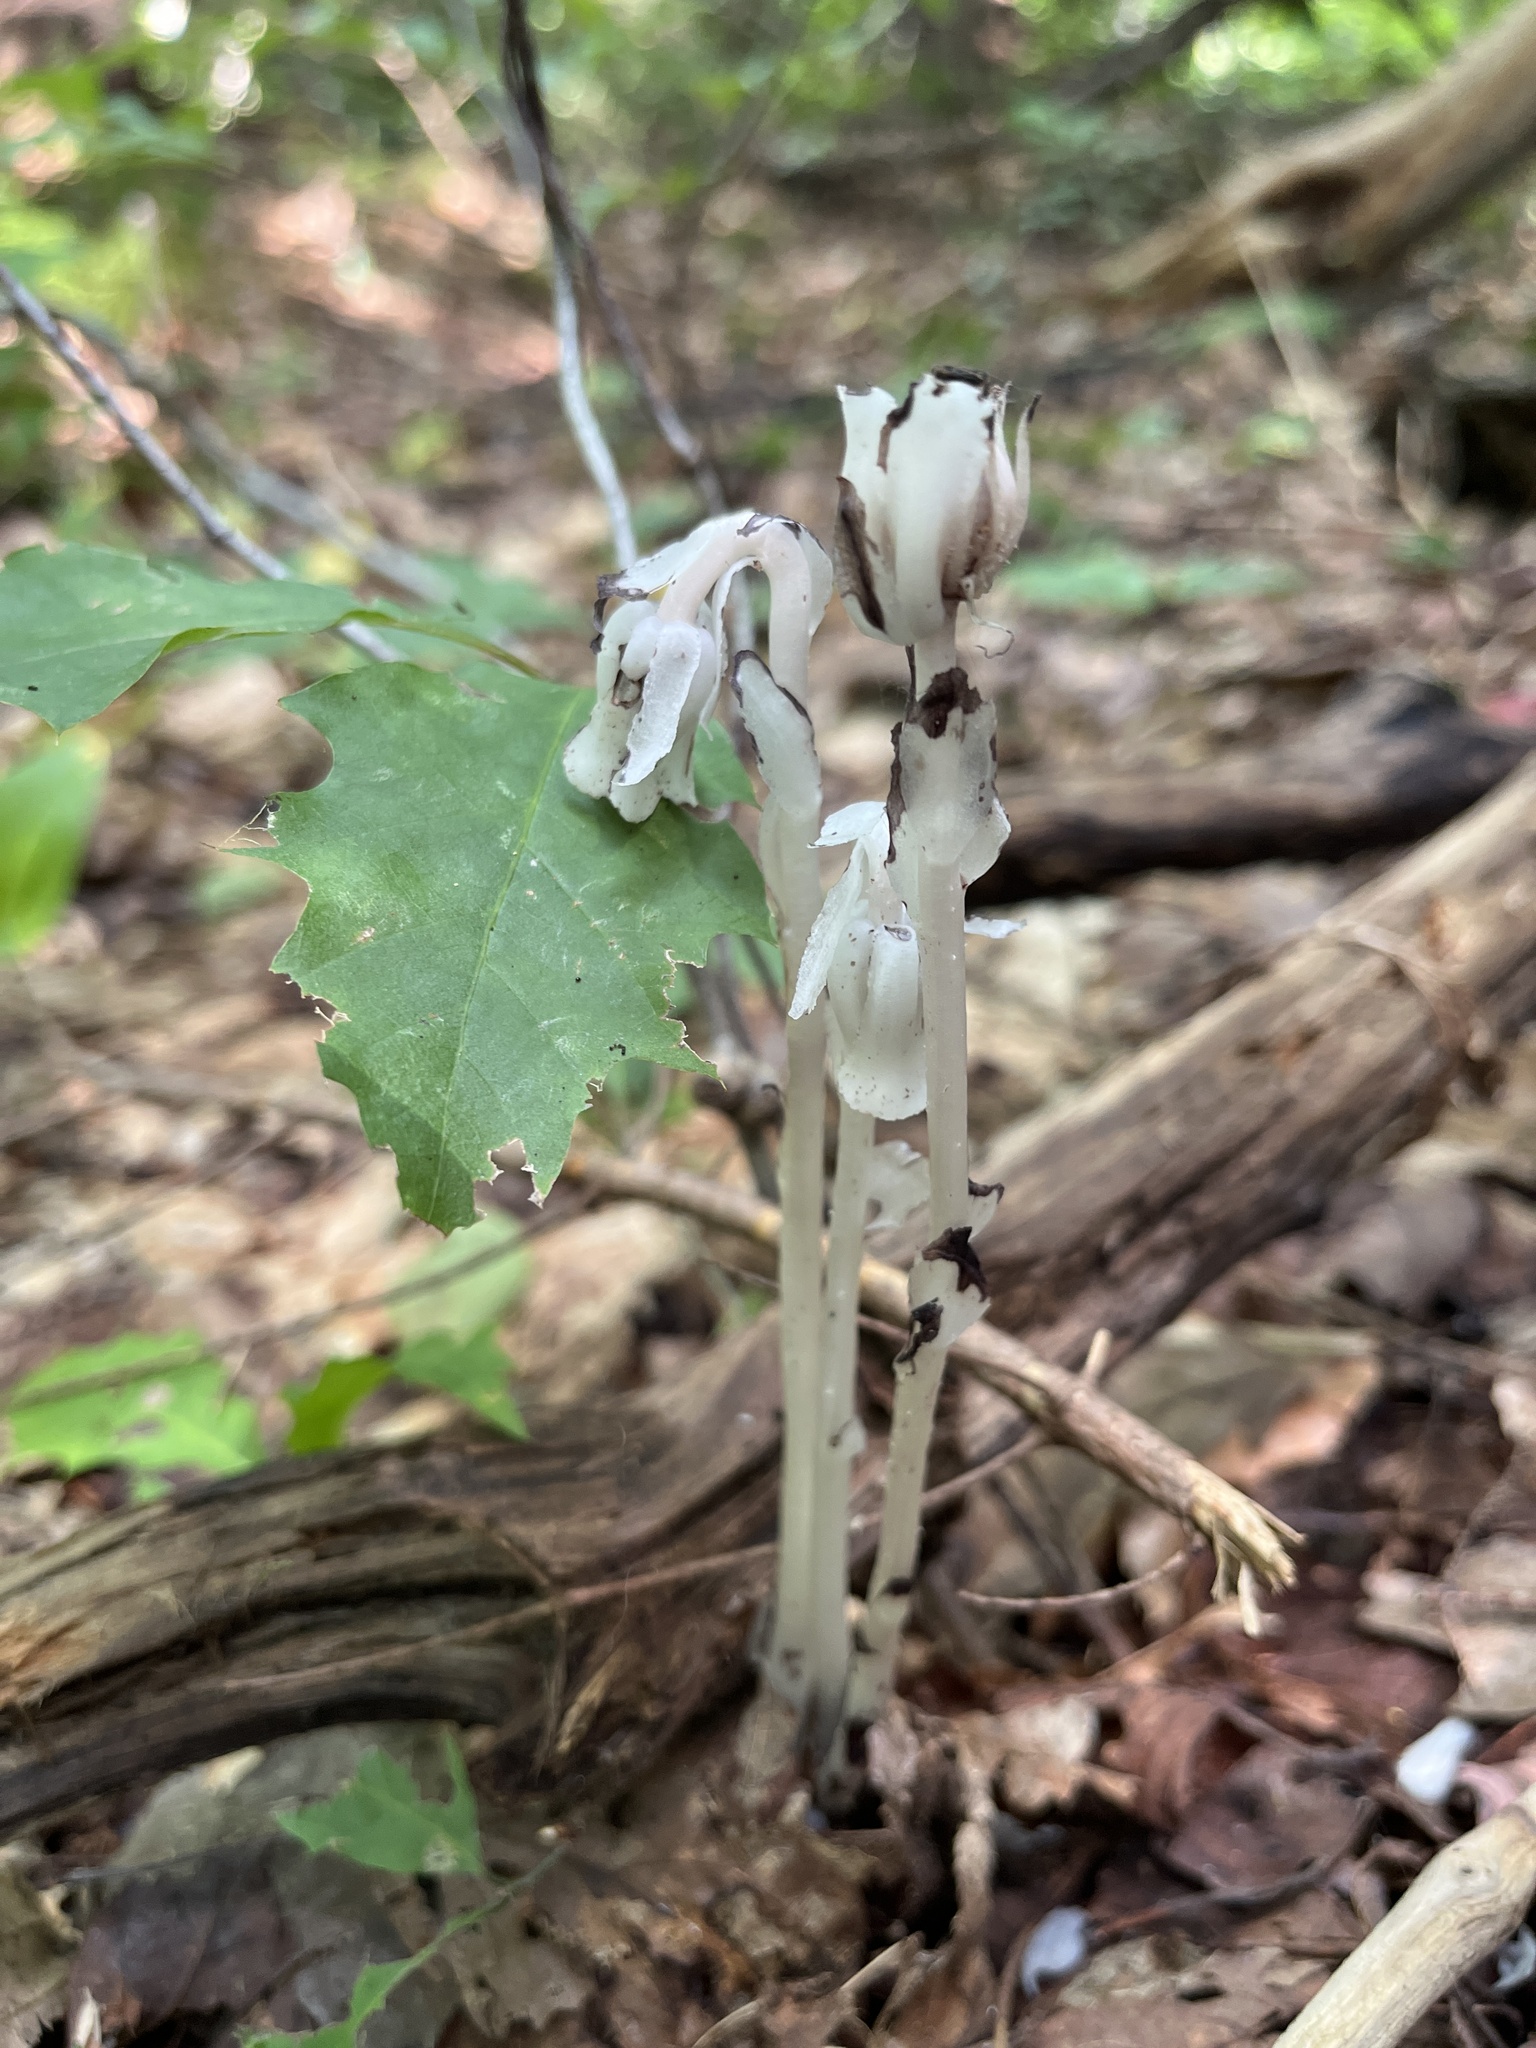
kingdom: Plantae
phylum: Tracheophyta
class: Magnoliopsida
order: Ericales
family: Ericaceae
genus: Monotropa
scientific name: Monotropa uniflora
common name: Convulsion root
